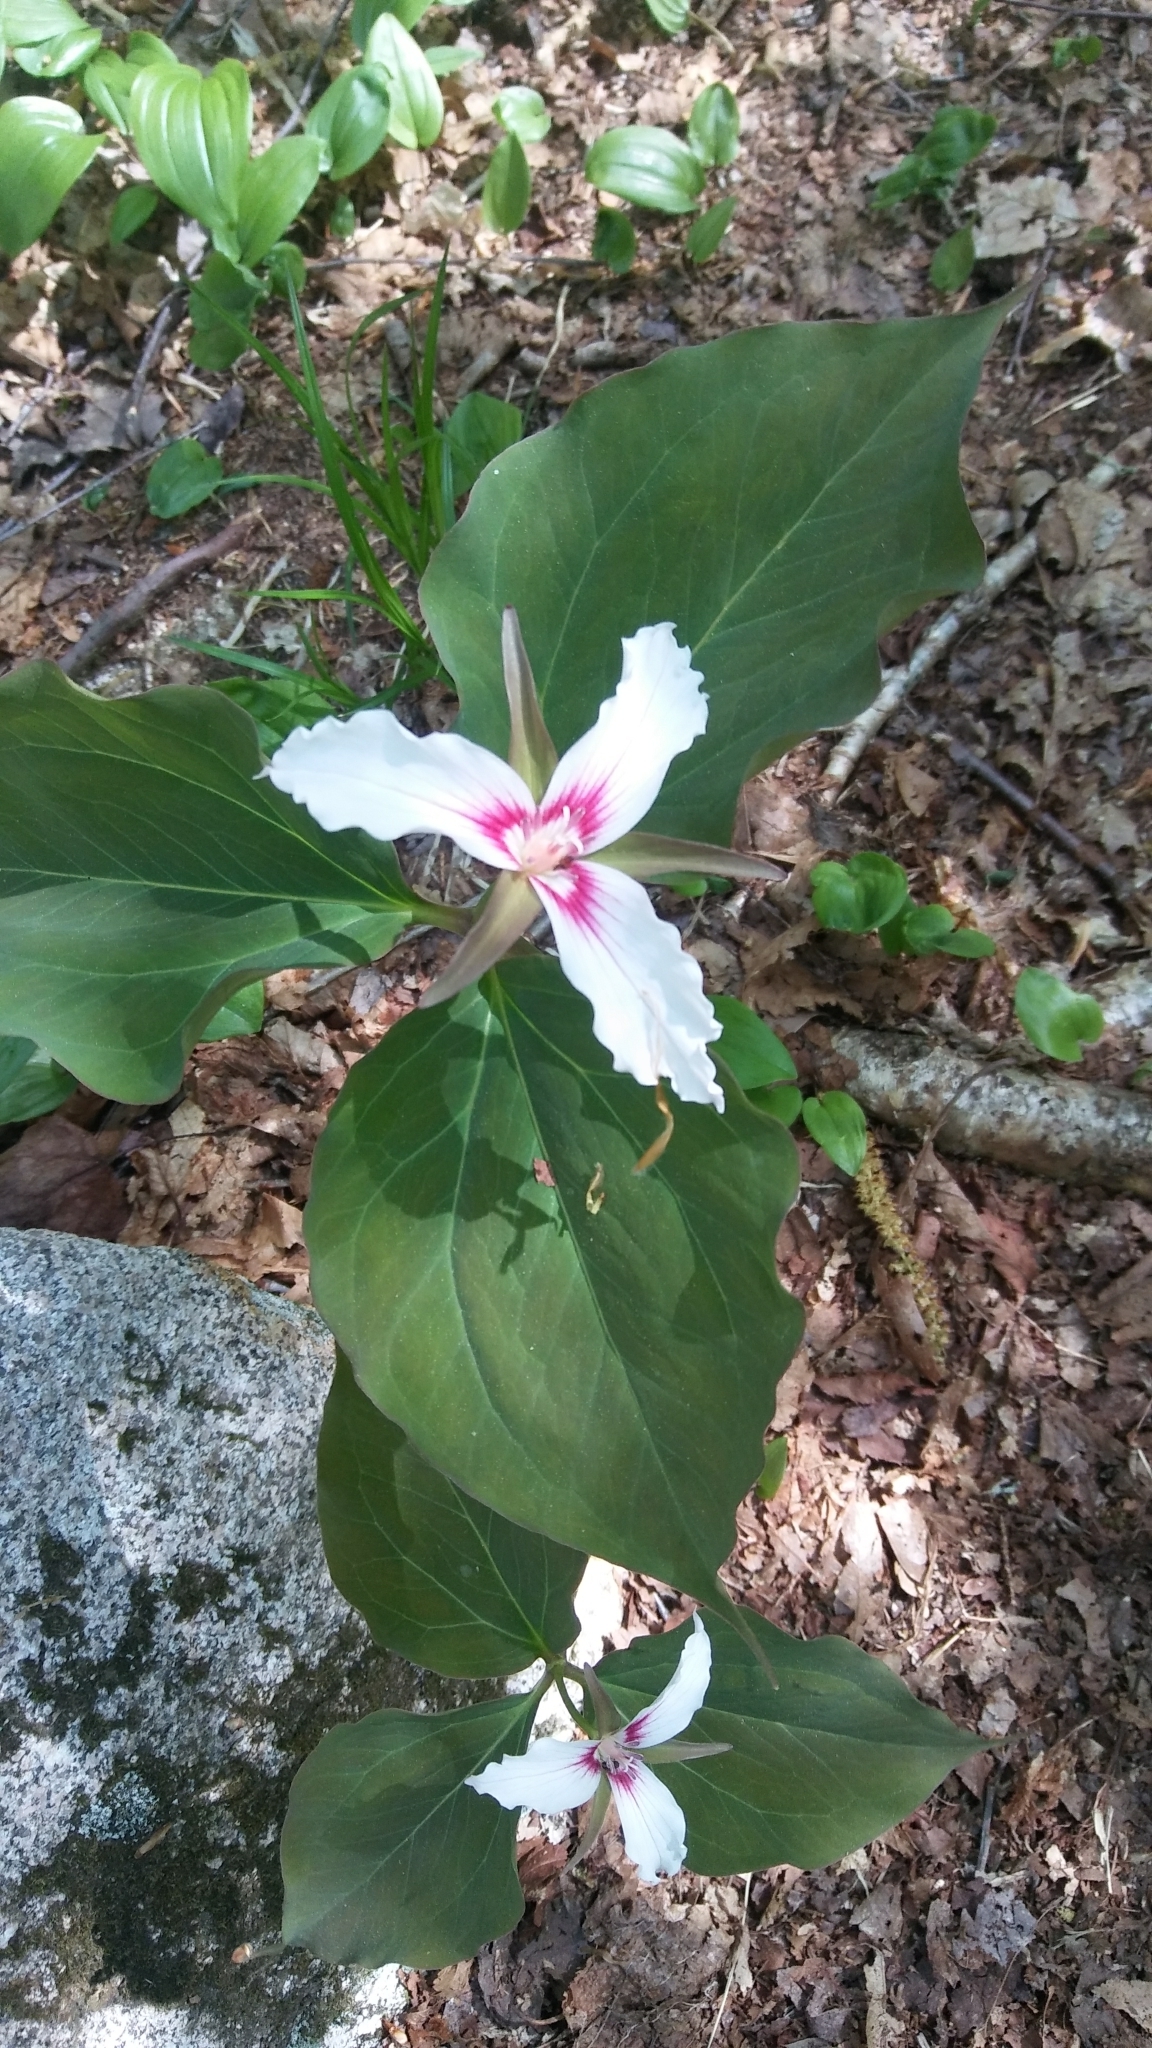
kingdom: Plantae
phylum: Tracheophyta
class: Liliopsida
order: Liliales
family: Melanthiaceae
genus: Trillium
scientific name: Trillium undulatum
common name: Paint trillium
